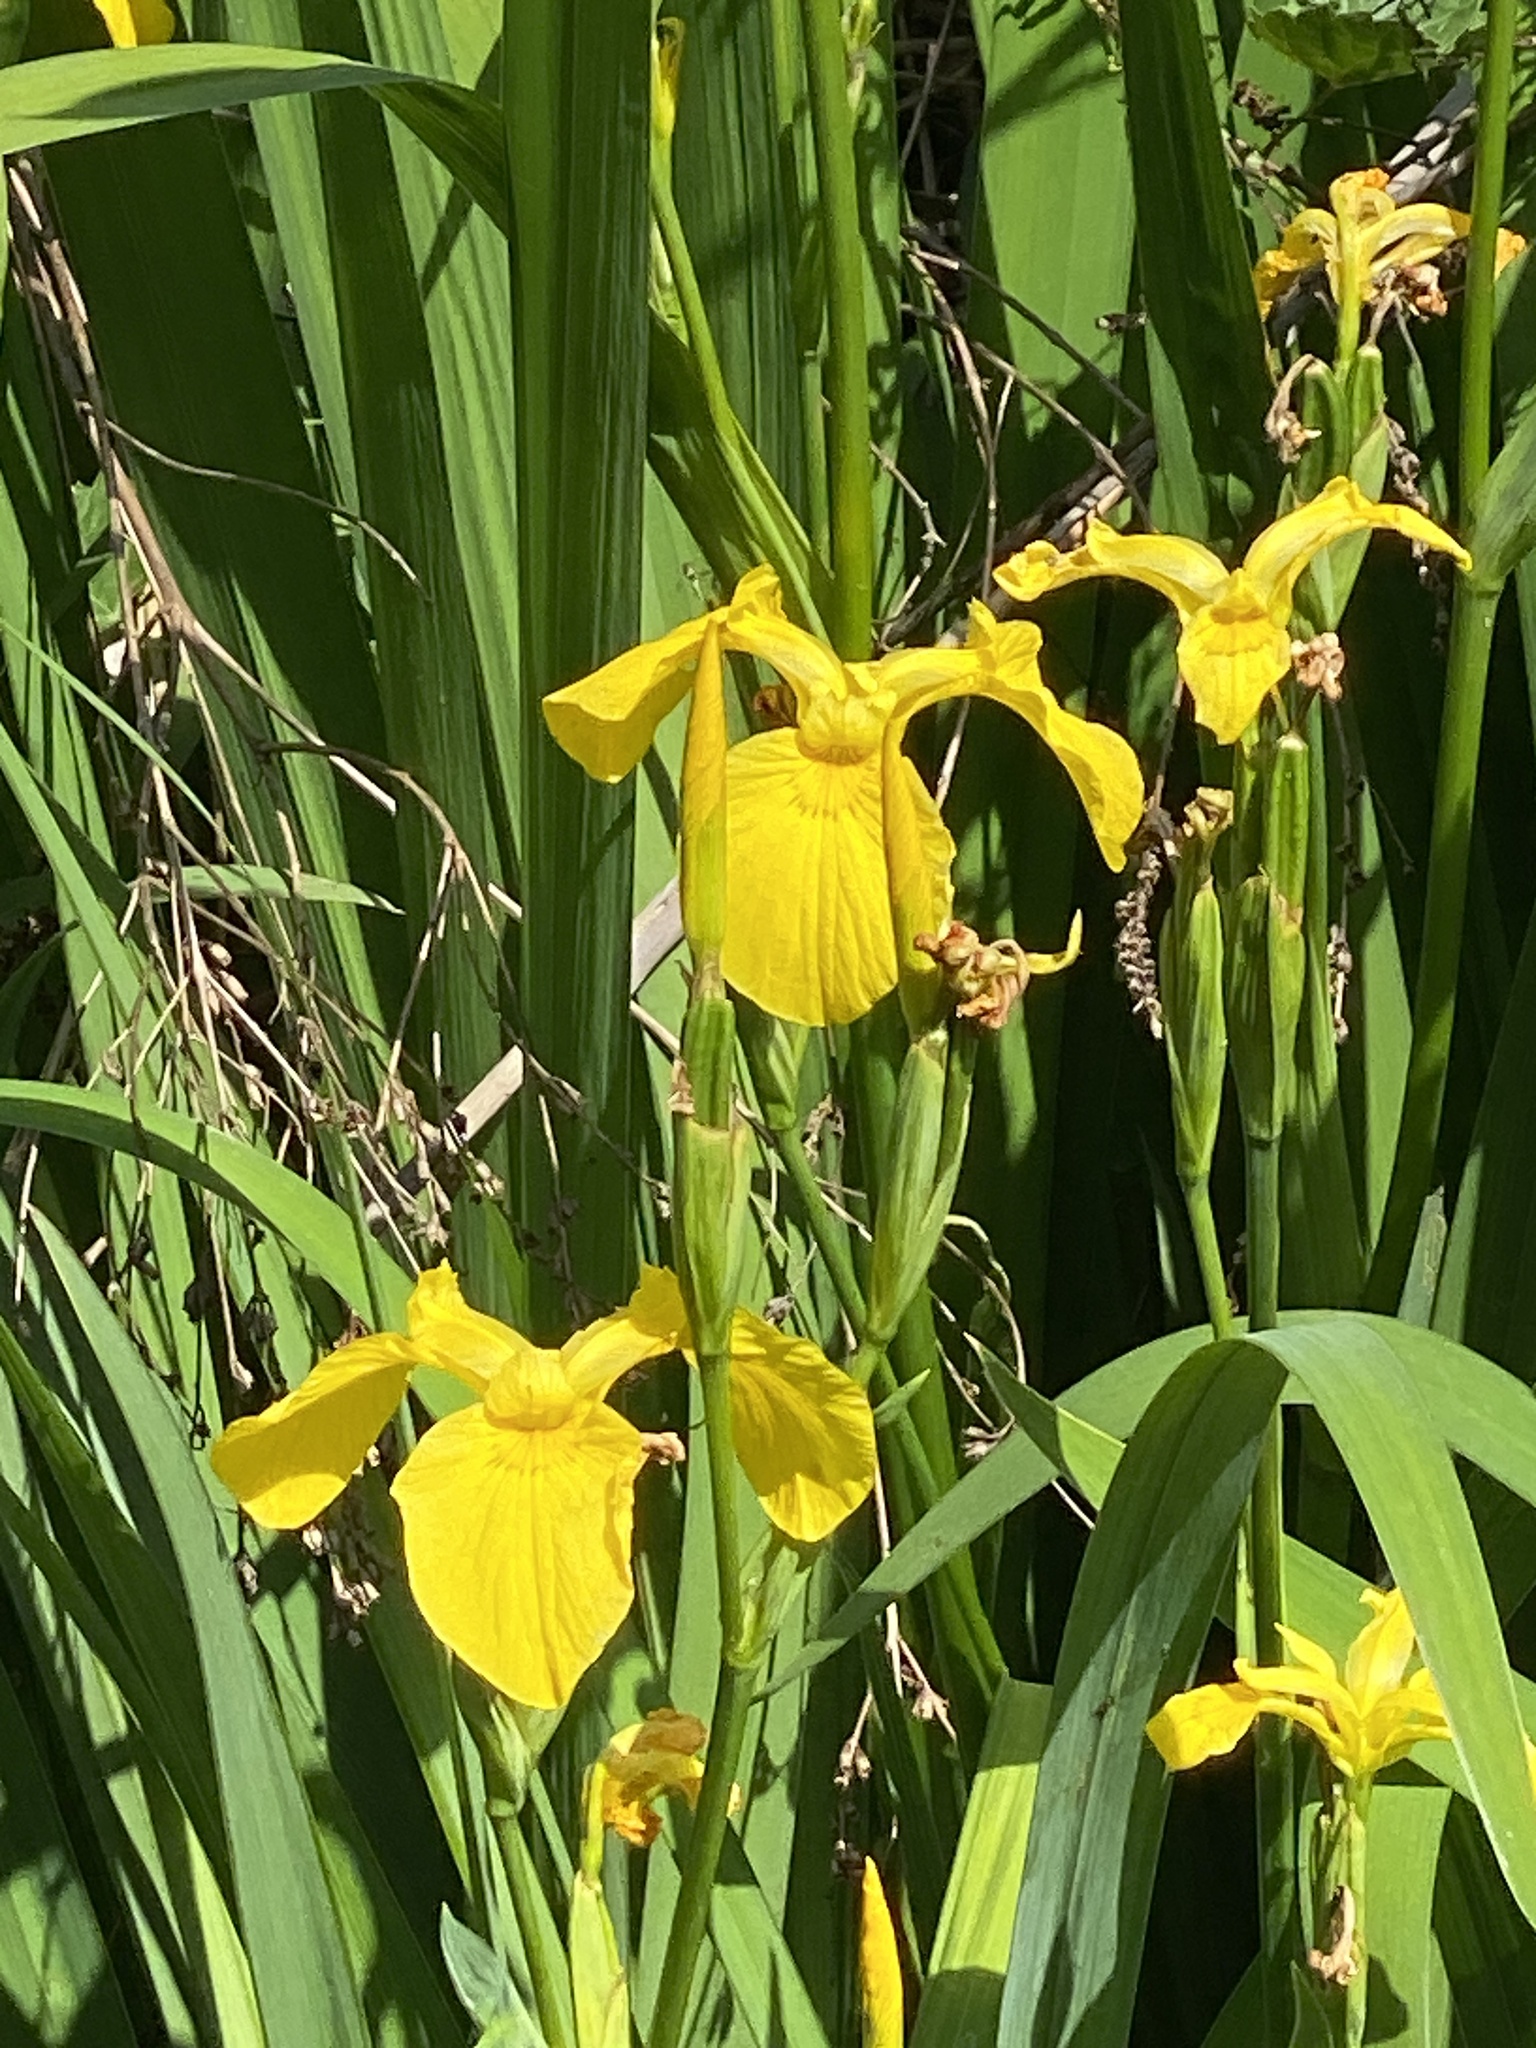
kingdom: Plantae
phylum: Tracheophyta
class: Liliopsida
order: Asparagales
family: Iridaceae
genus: Iris
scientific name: Iris pseudacorus
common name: Yellow flag
